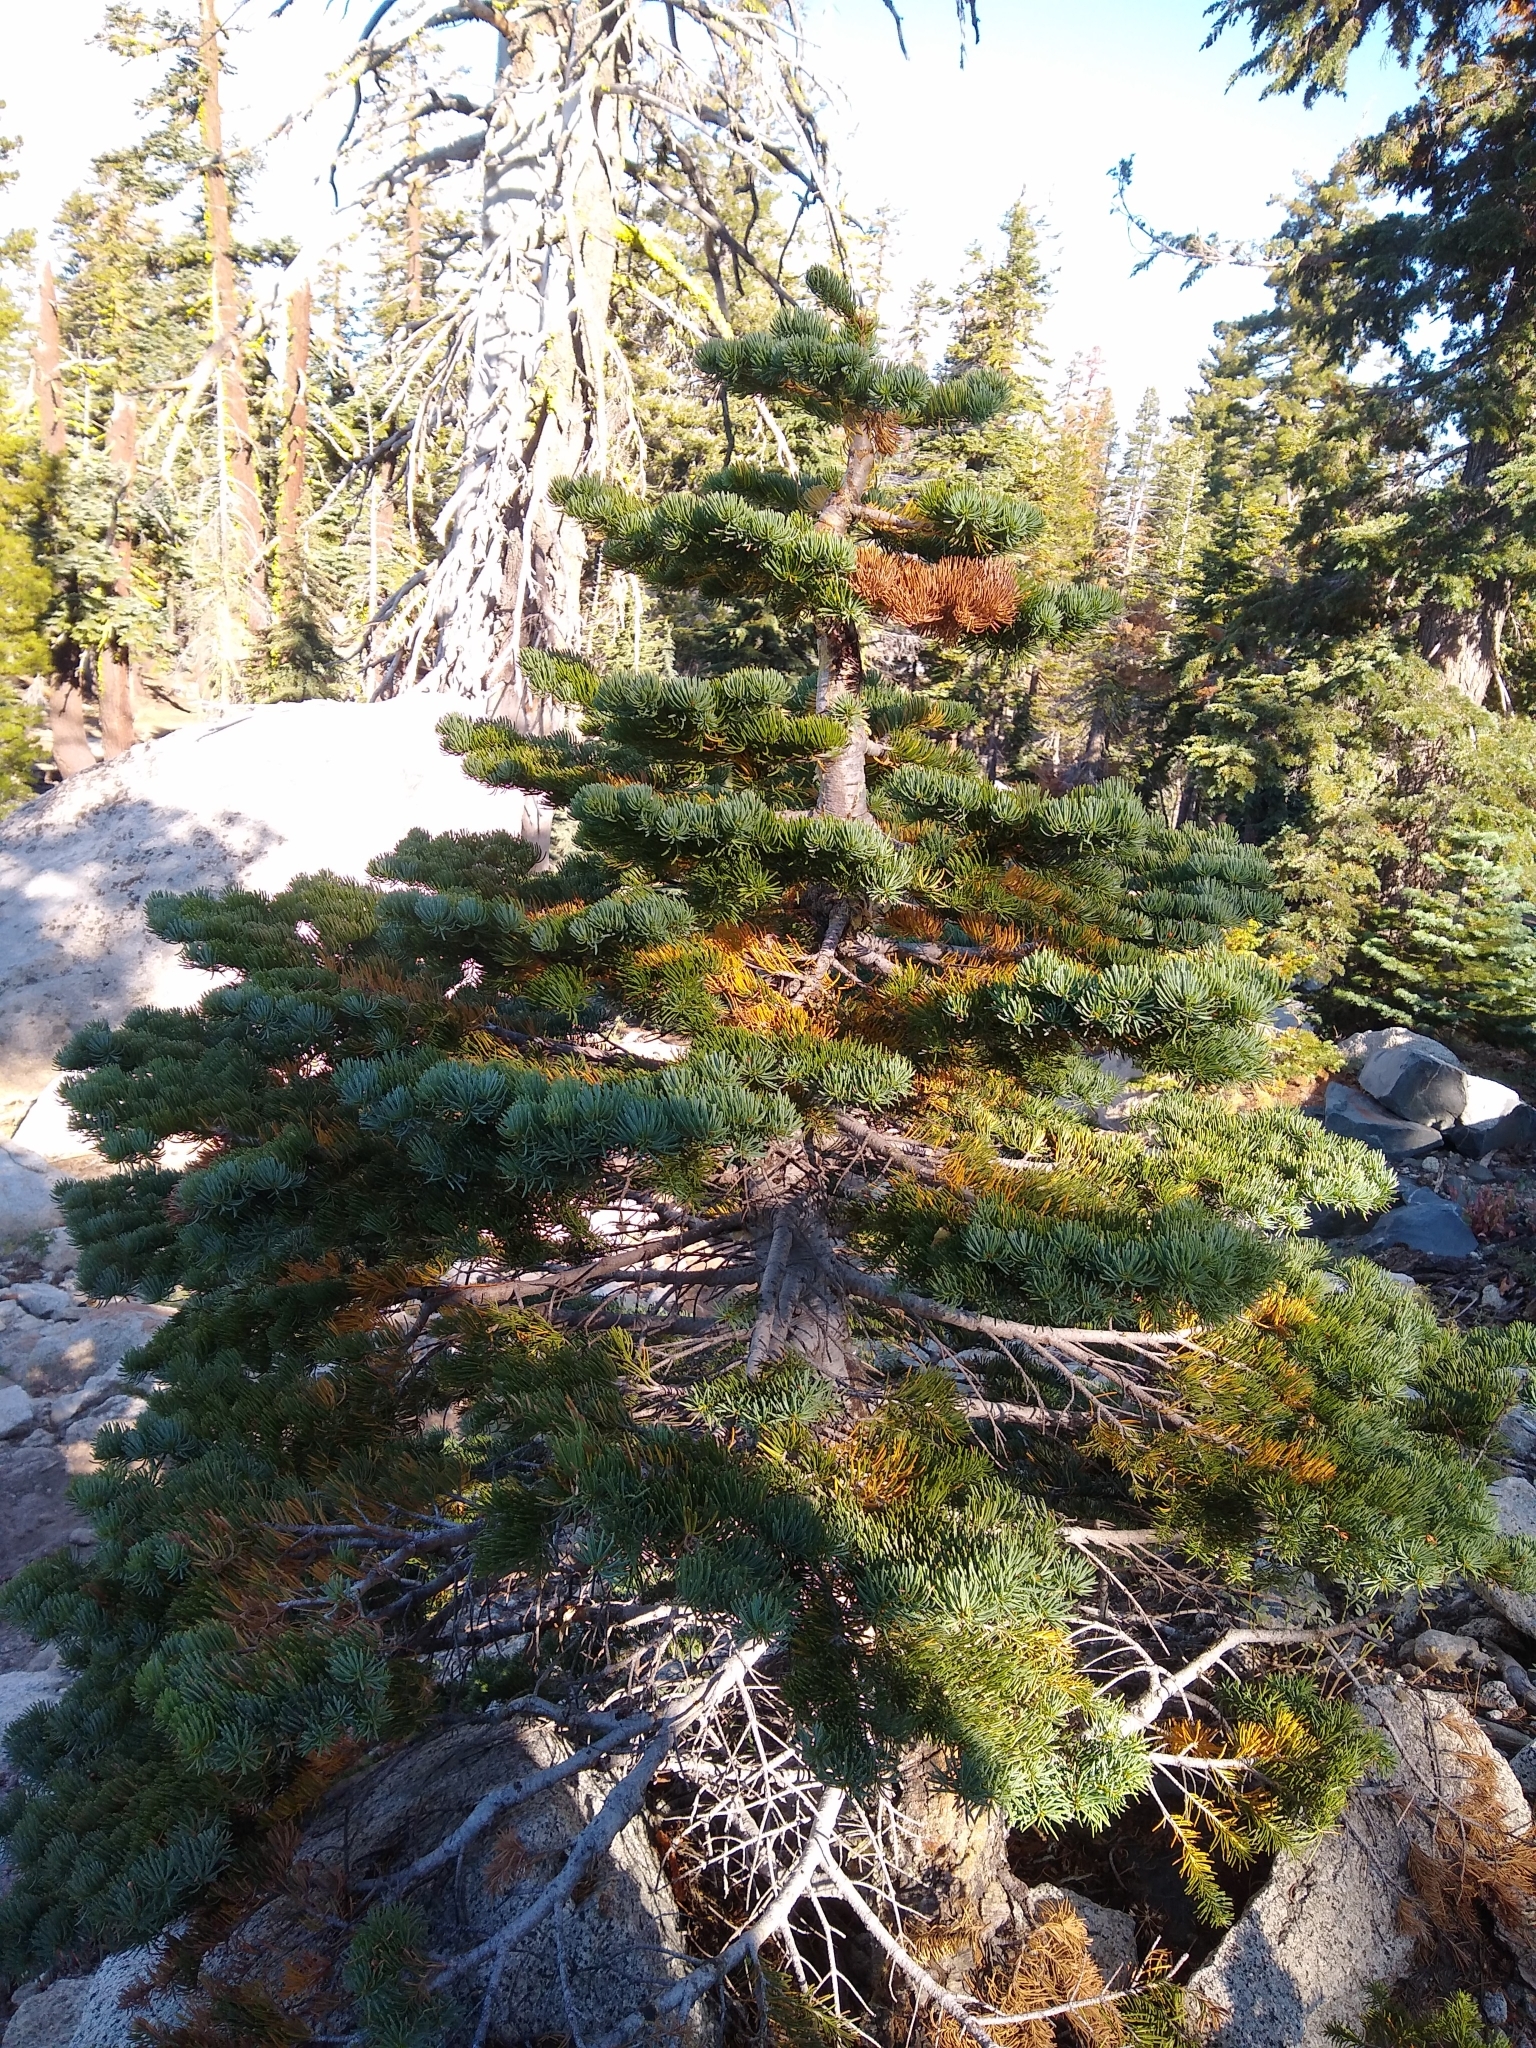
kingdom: Plantae
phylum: Tracheophyta
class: Pinopsida
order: Pinales
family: Pinaceae
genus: Abies
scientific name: Abies magnifica bis
